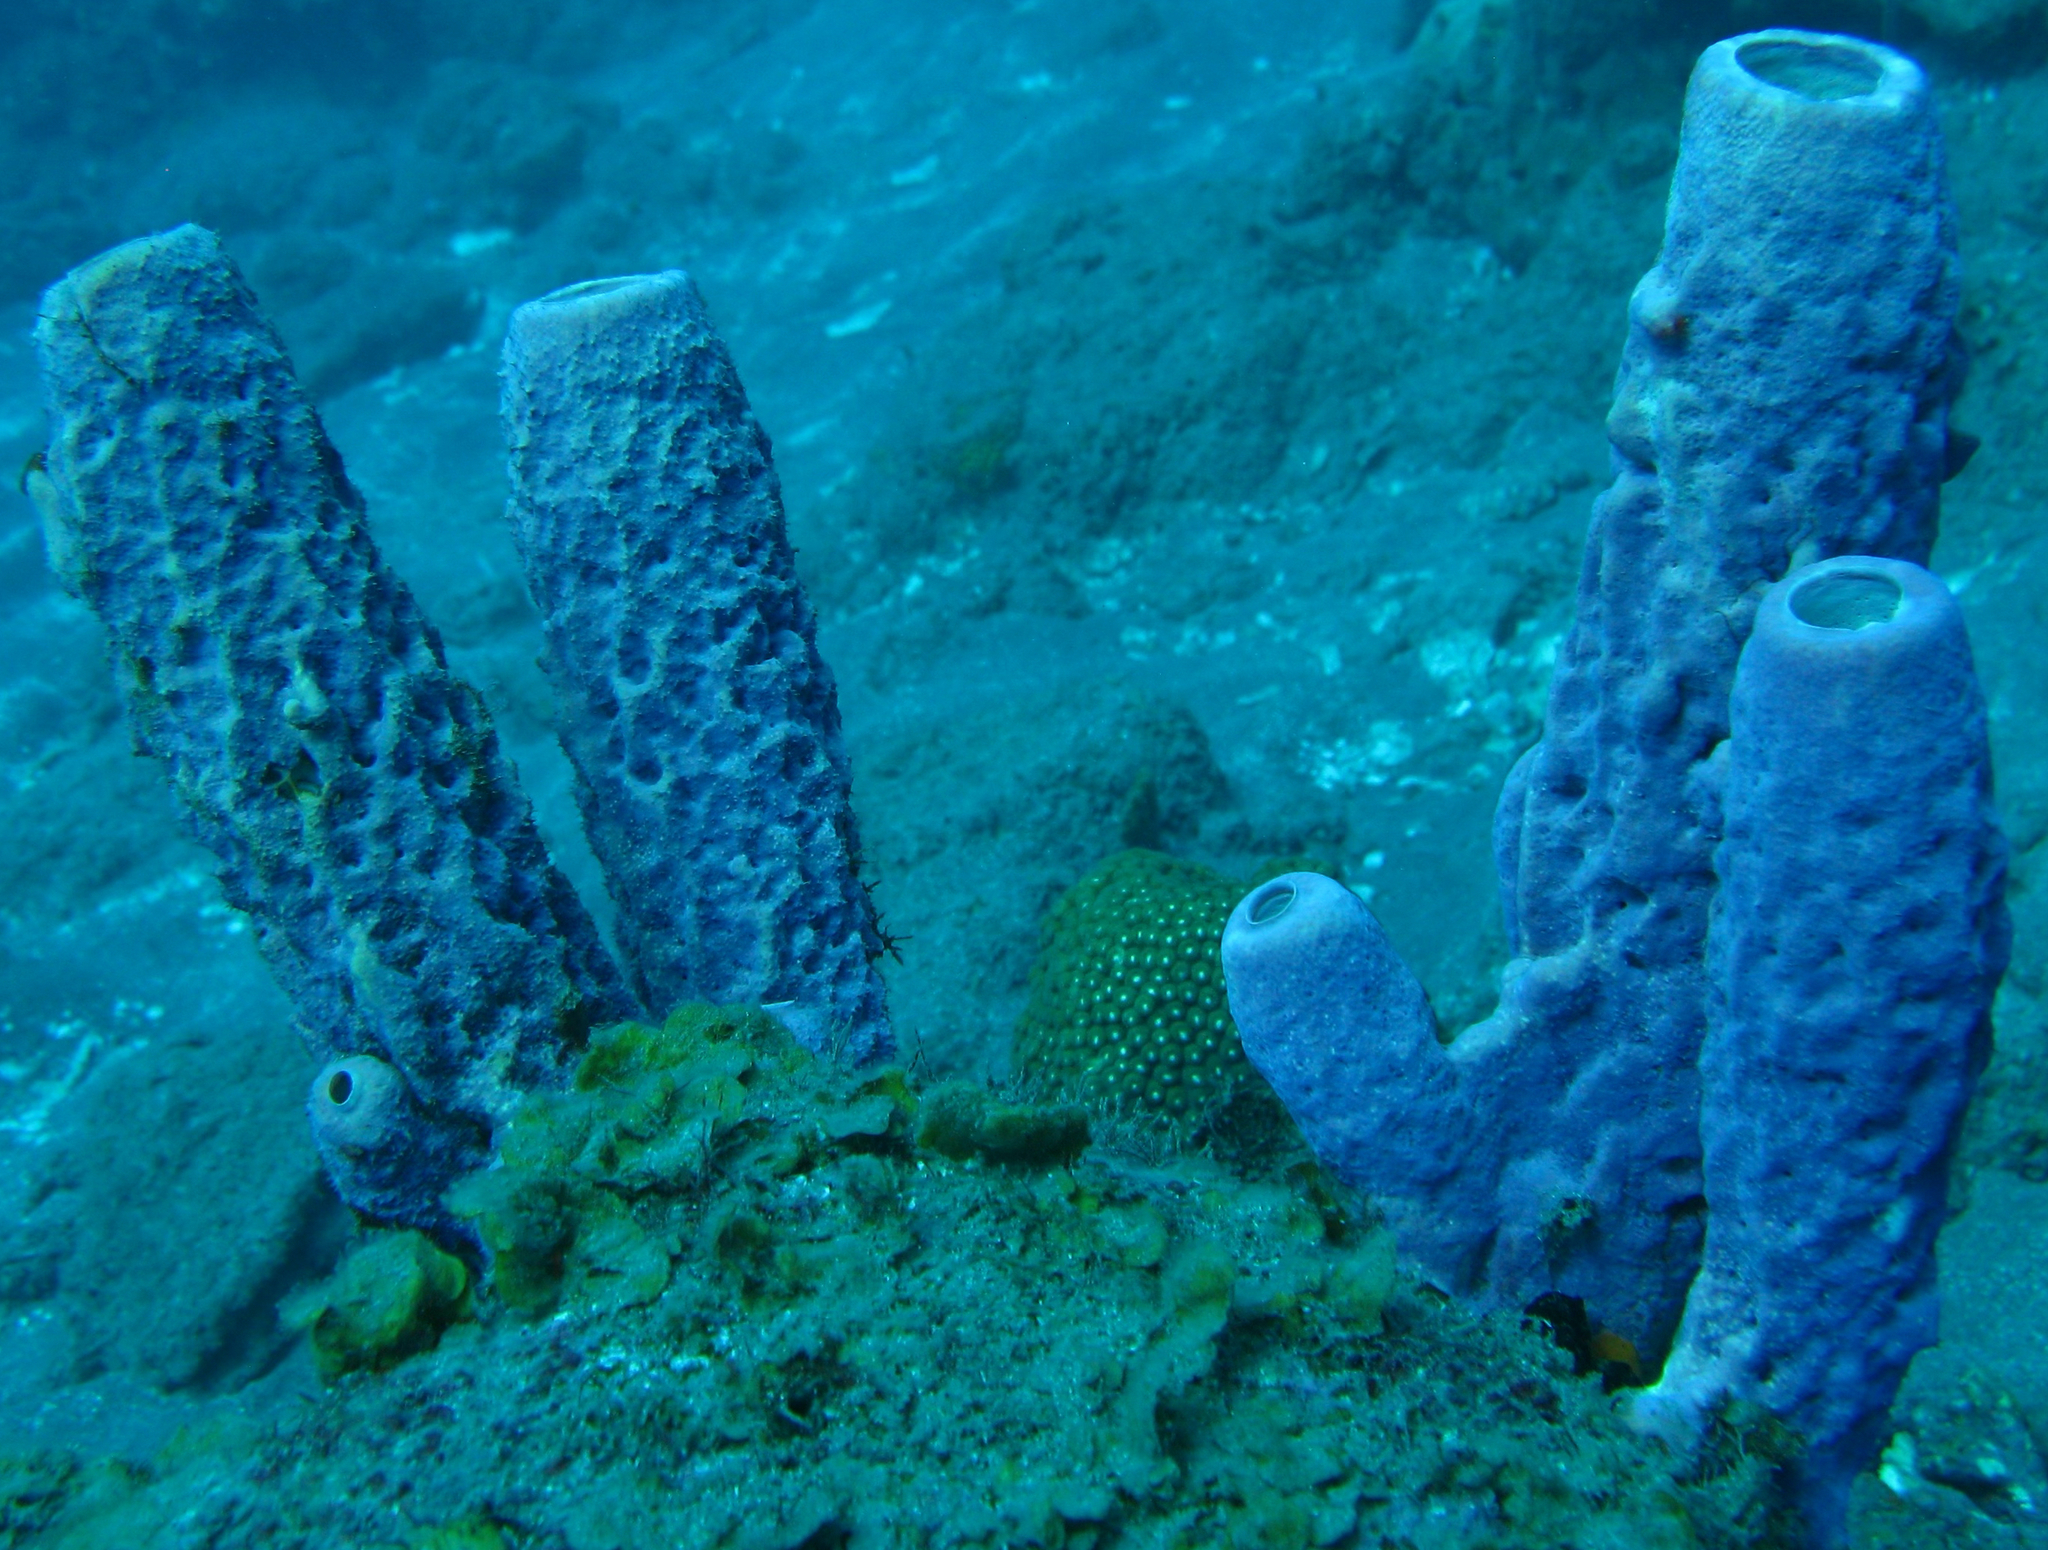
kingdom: Animalia
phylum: Porifera
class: Demospongiae
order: Verongiida
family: Aplysinidae
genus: Aplysina
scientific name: Aplysina archeri
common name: Stove-pipe sponge
